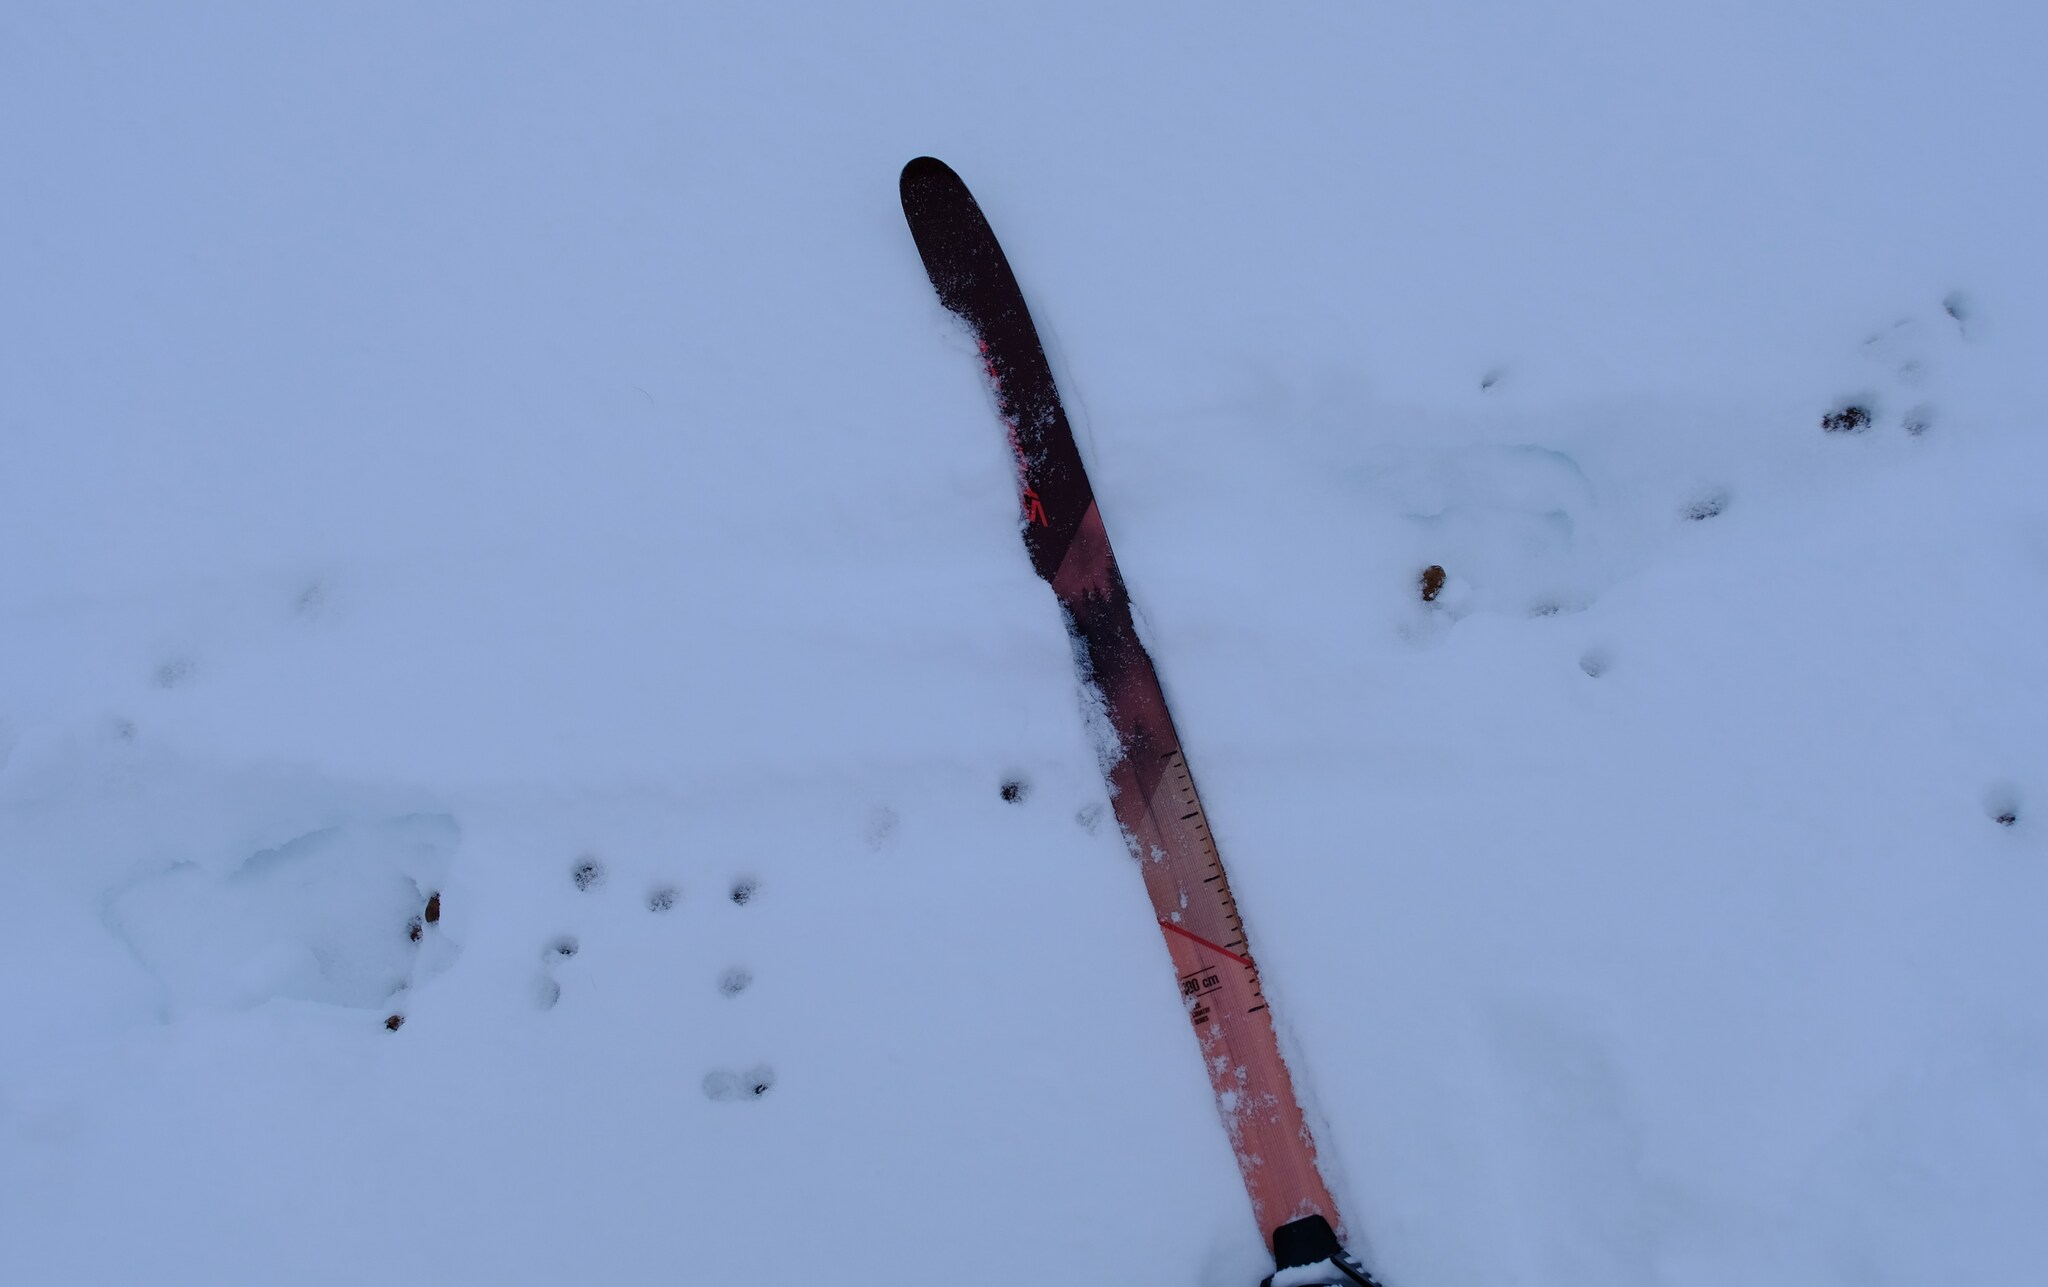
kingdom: Animalia
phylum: Chordata
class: Mammalia
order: Artiodactyla
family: Cervidae
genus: Alces
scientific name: Alces alces
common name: Moose
